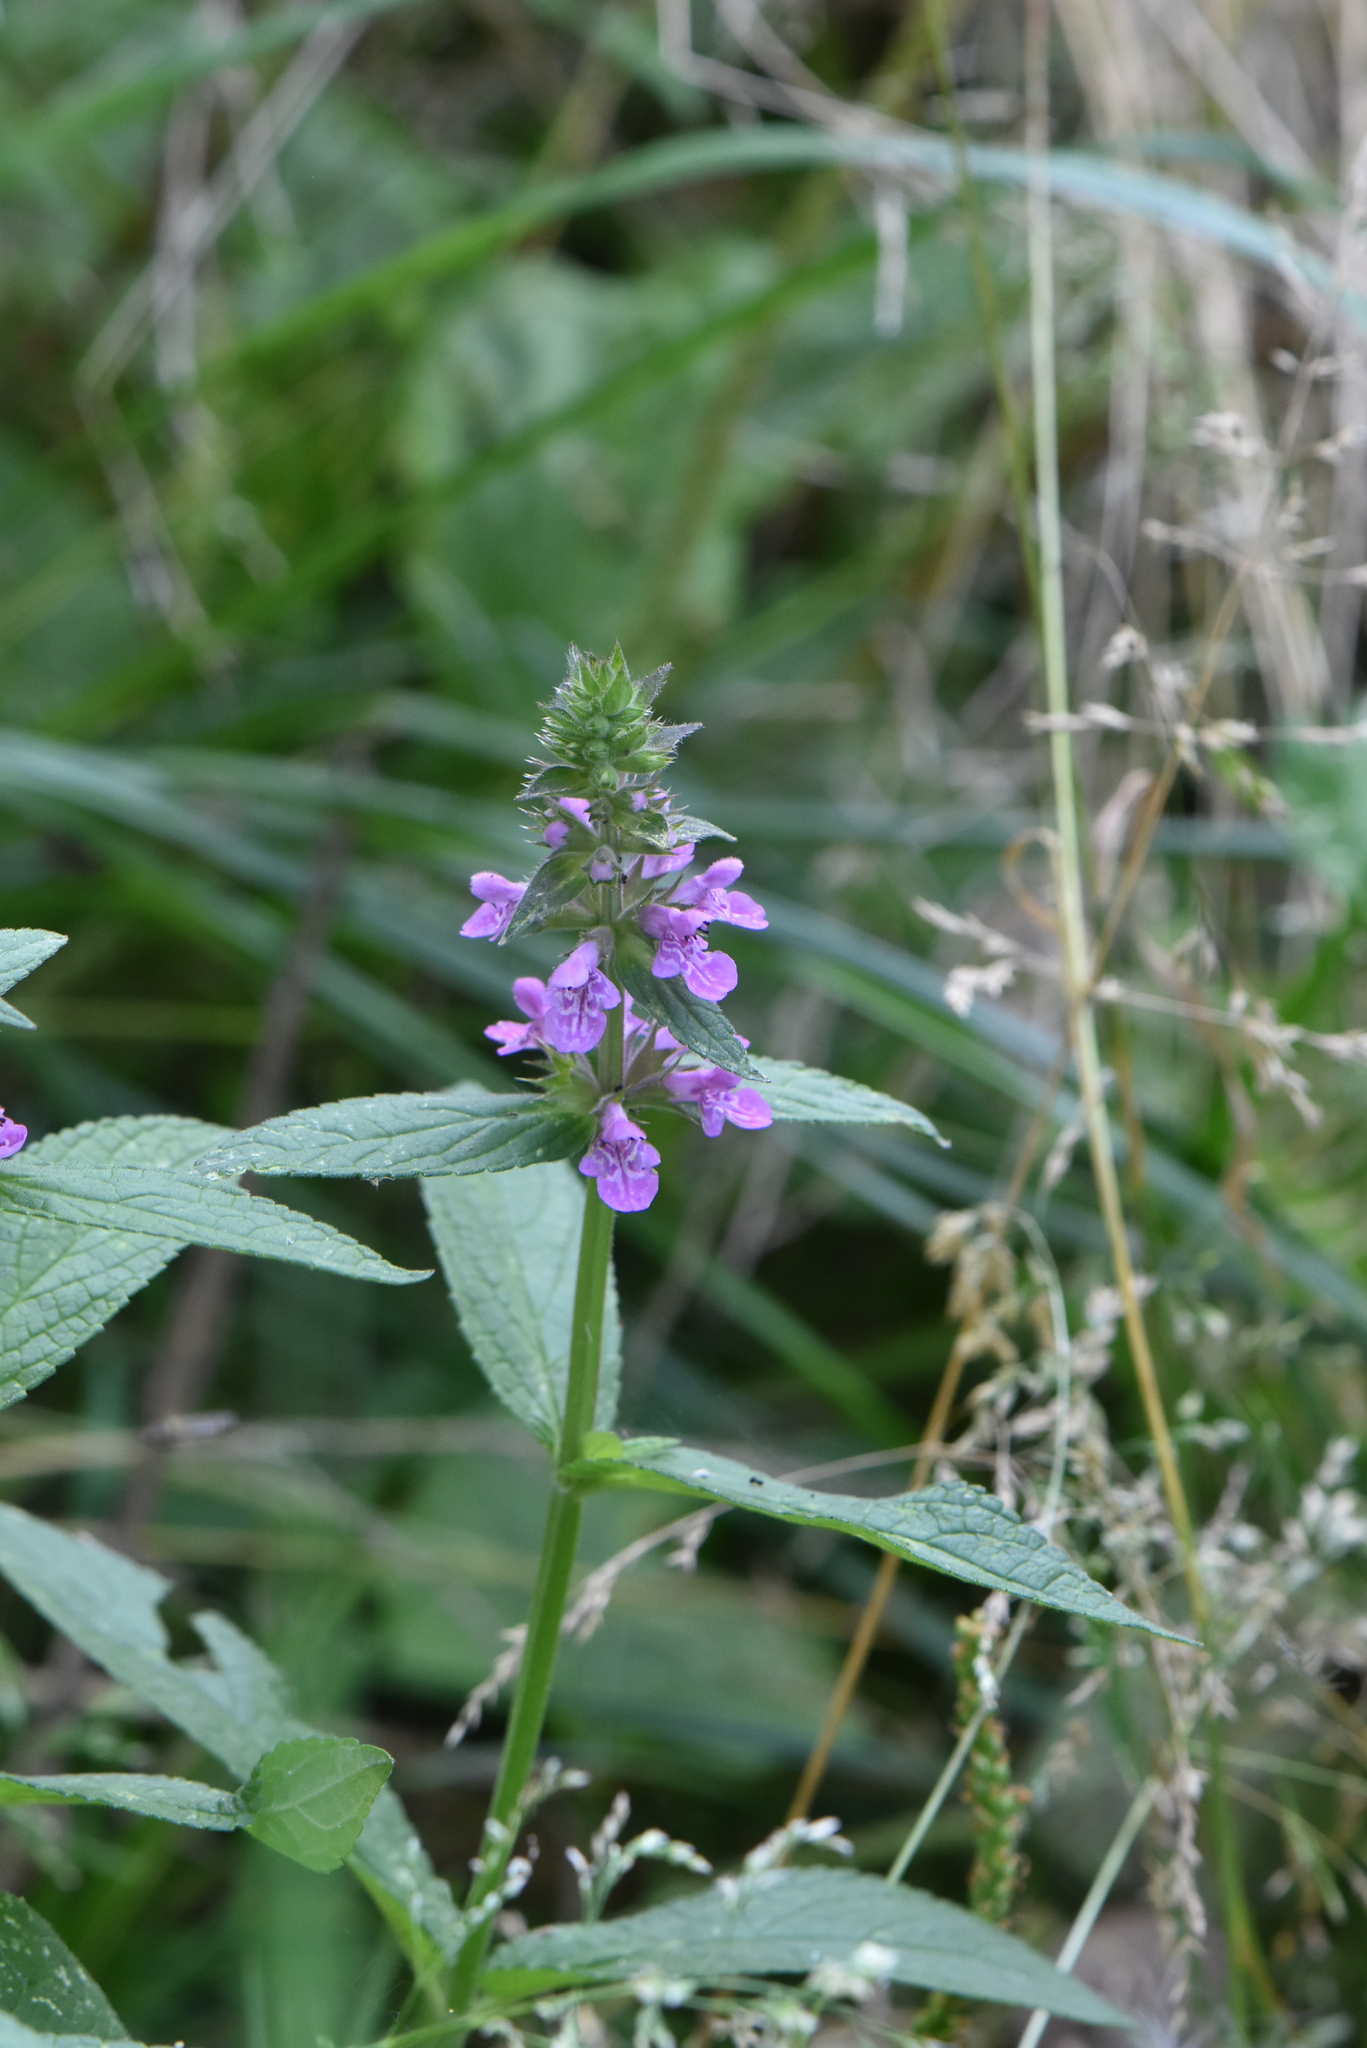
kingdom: Plantae
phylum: Tracheophyta
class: Magnoliopsida
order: Lamiales
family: Lamiaceae
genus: Stachys
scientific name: Stachys palustris
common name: Marsh woundwort
